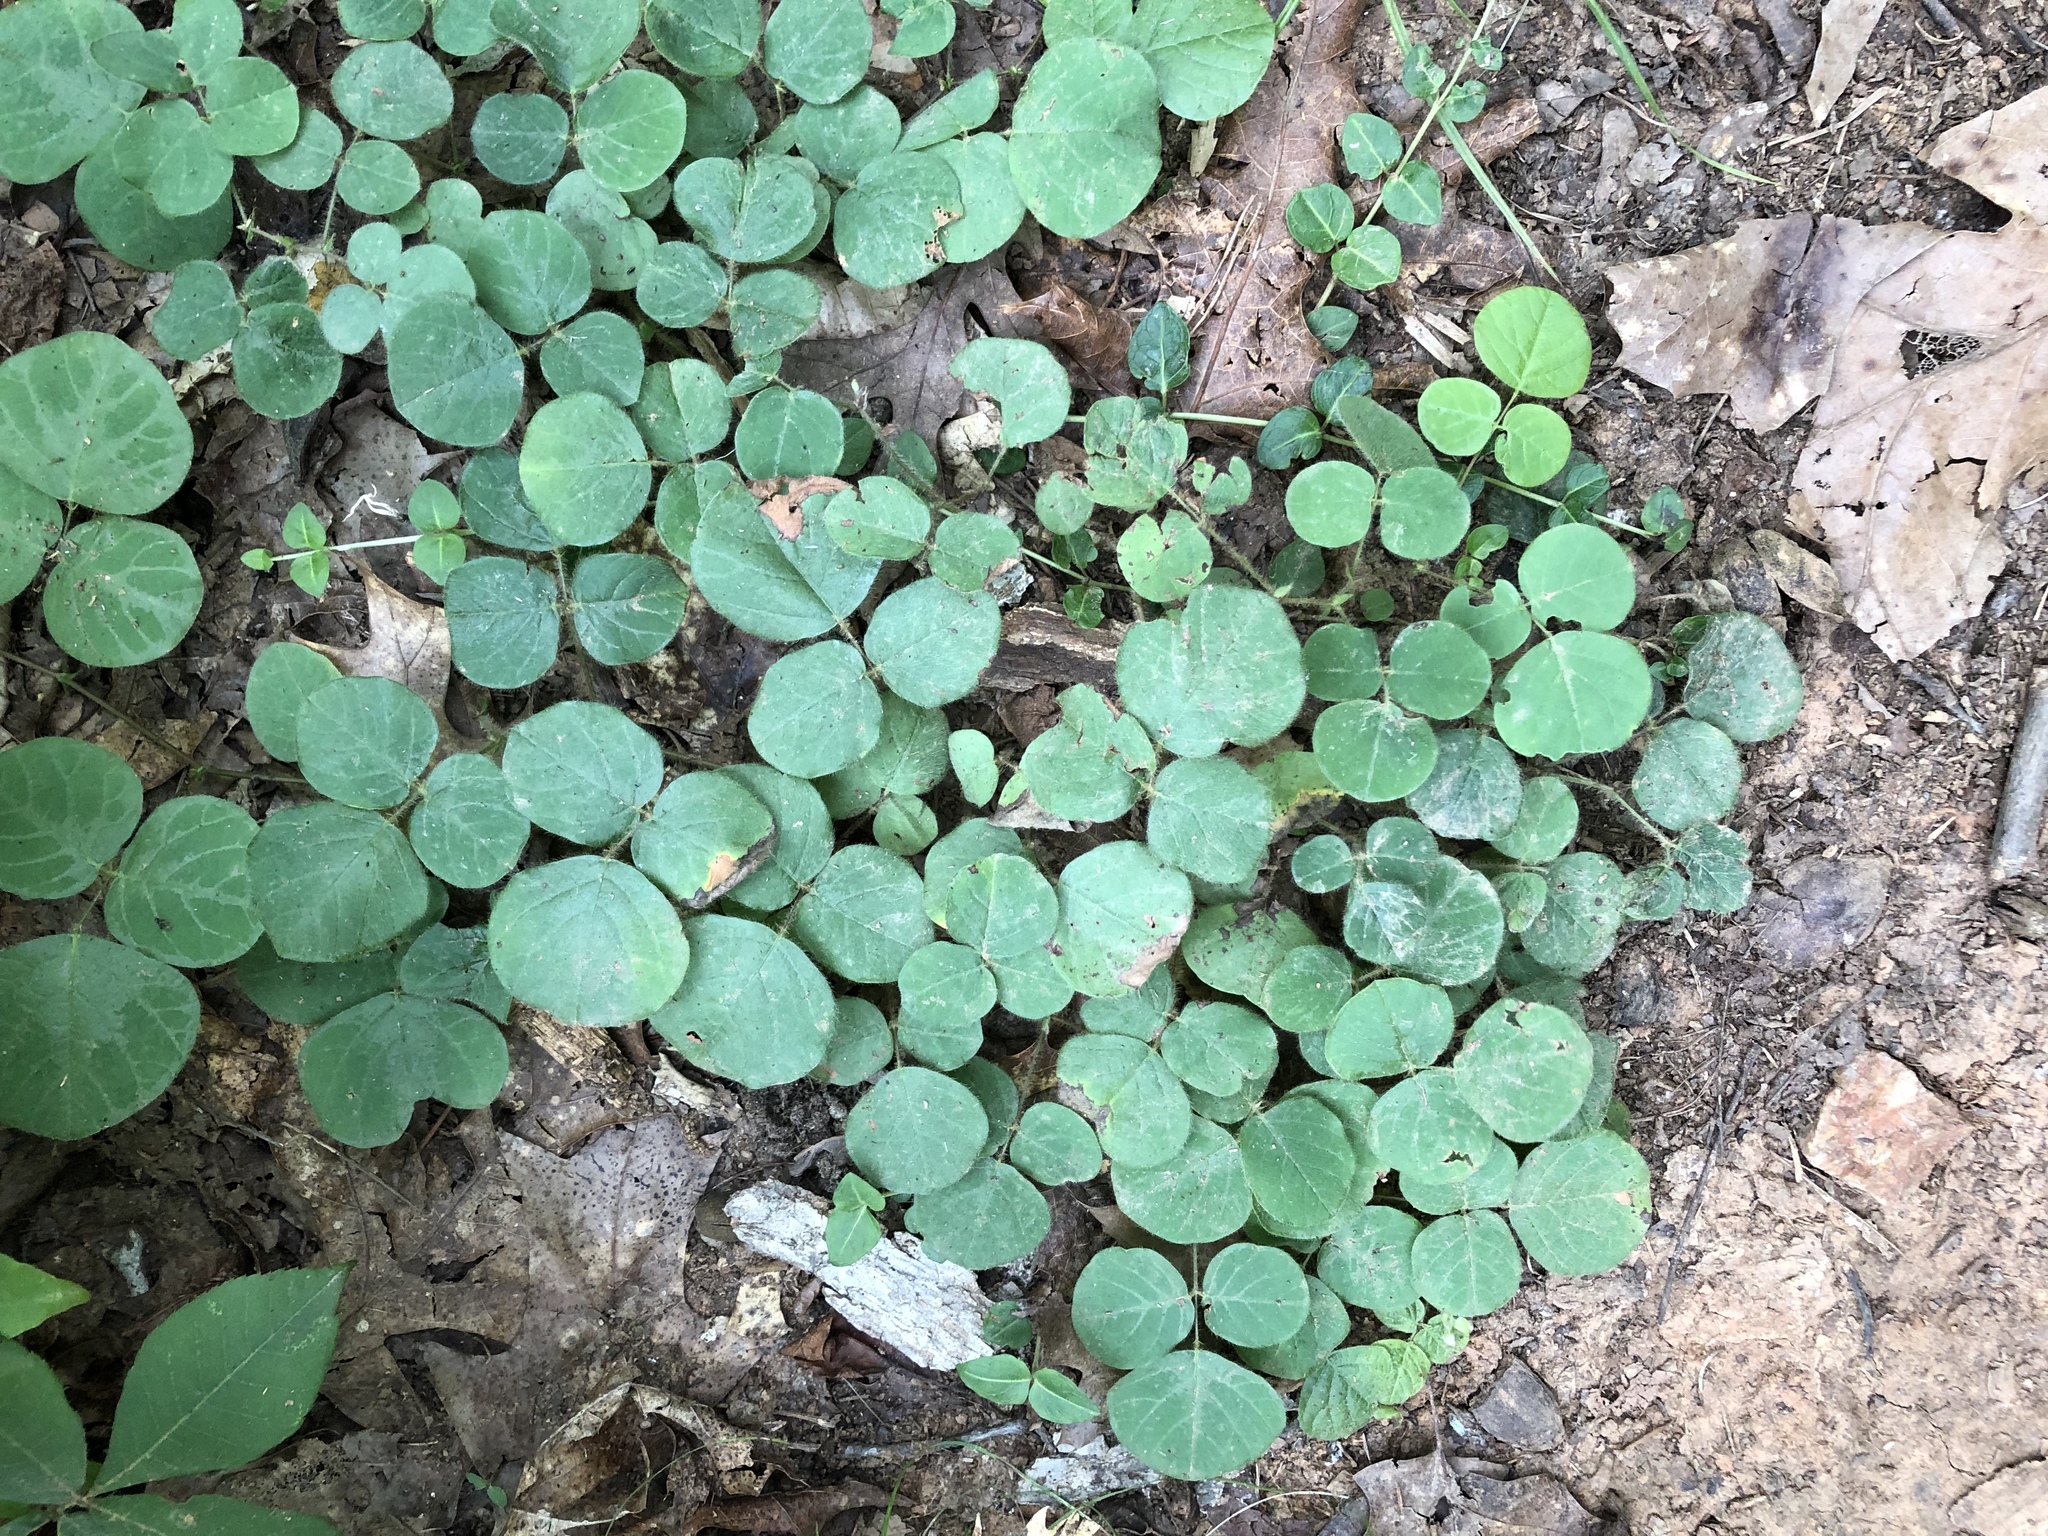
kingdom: Plantae
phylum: Tracheophyta
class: Magnoliopsida
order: Fabales
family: Fabaceae
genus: Desmodium
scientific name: Desmodium rotundifolium
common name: Dollarleaf
